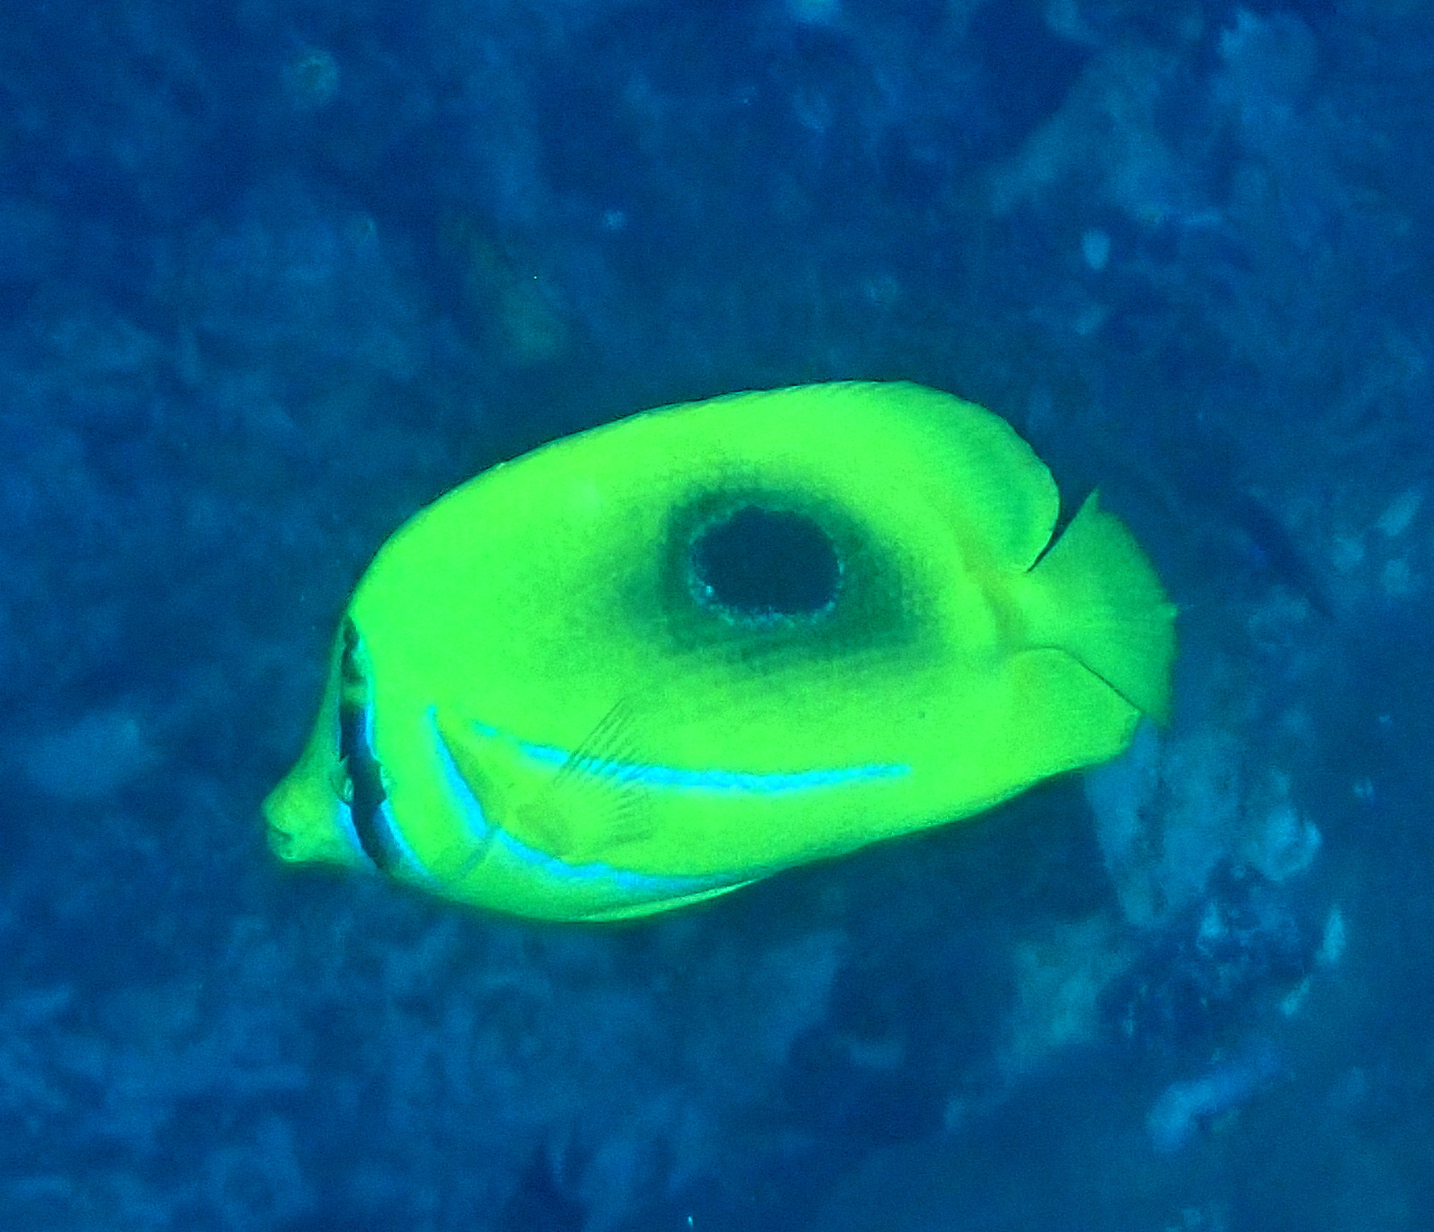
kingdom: Animalia
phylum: Chordata
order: Perciformes
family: Chaetodontidae
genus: Chaetodon
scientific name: Chaetodon bennetti
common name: Bennett's butterflyfish
